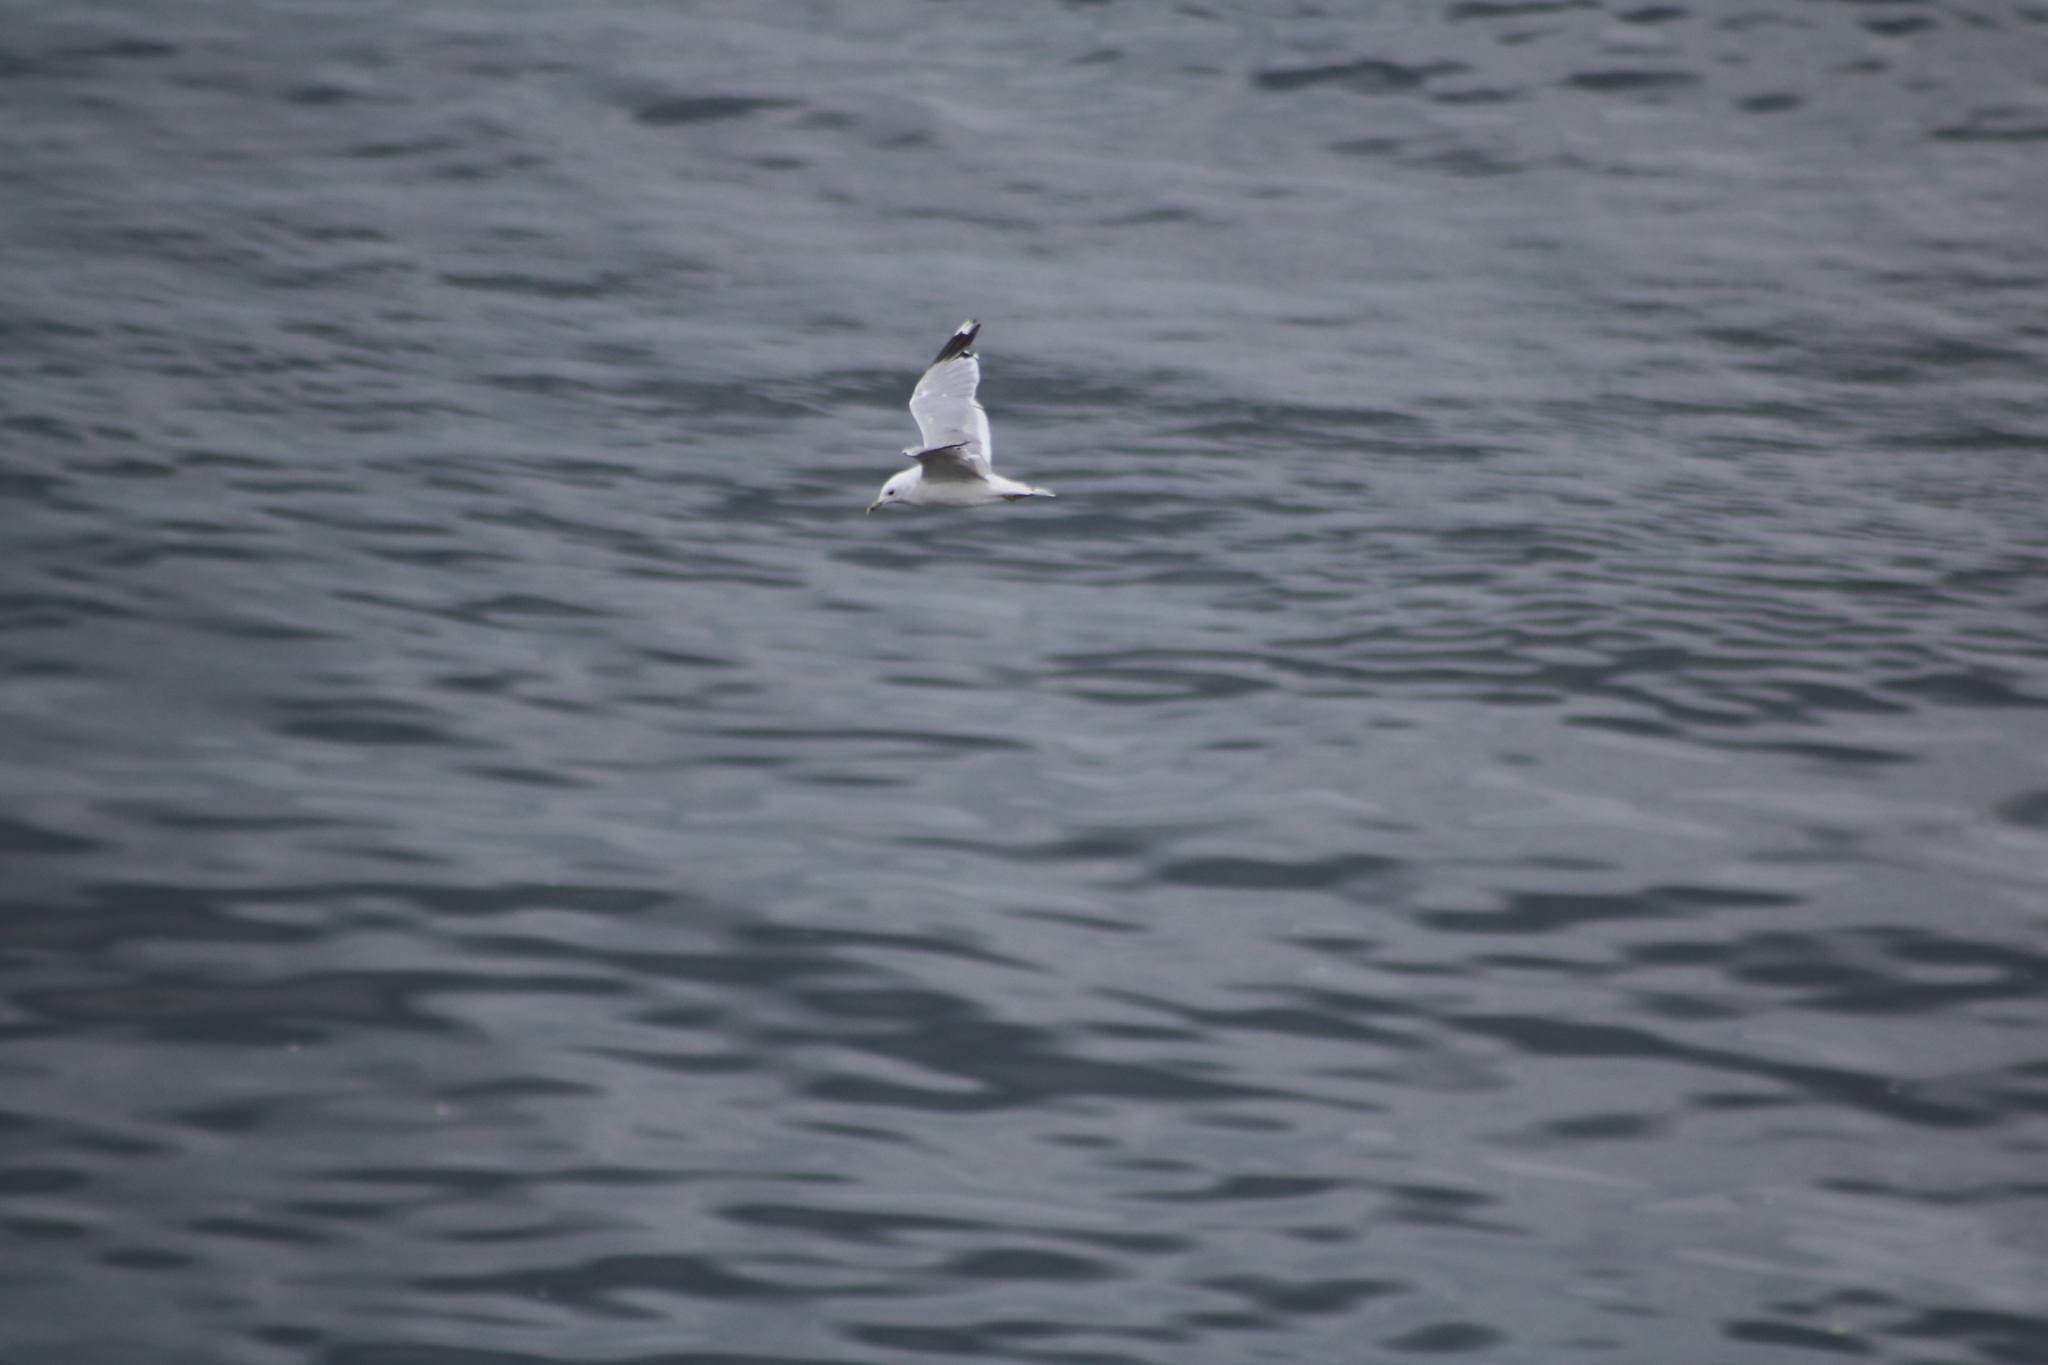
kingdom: Animalia
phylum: Chordata
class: Aves
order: Charadriiformes
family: Laridae
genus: Larus
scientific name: Larus canus
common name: Mew gull
